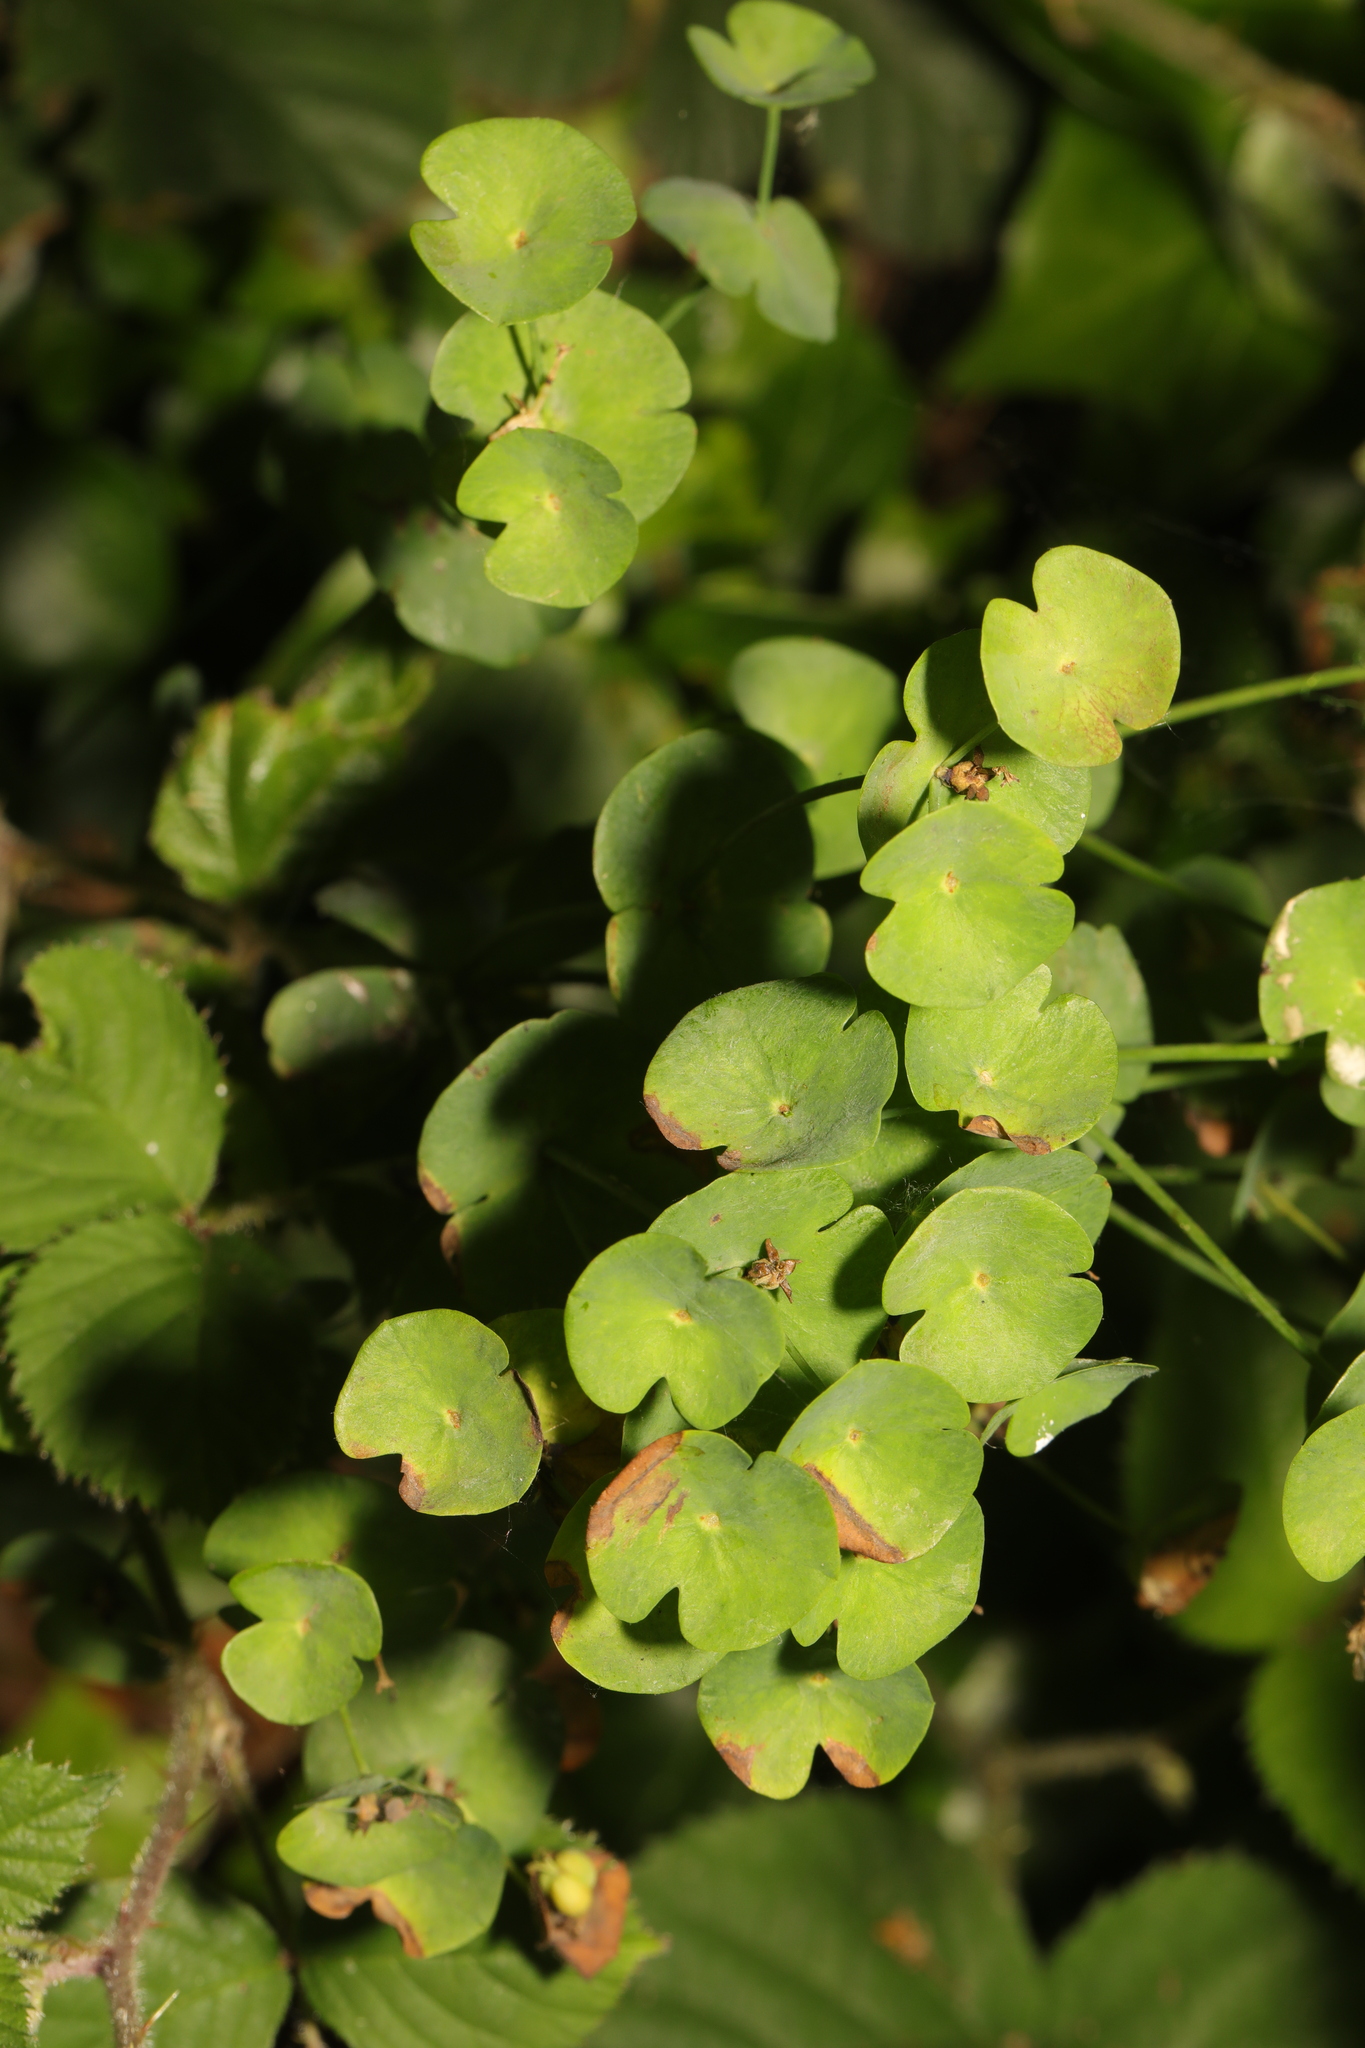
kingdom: Plantae
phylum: Tracheophyta
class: Magnoliopsida
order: Malpighiales
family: Euphorbiaceae
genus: Euphorbia
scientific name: Euphorbia amygdaloides
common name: Wood spurge
